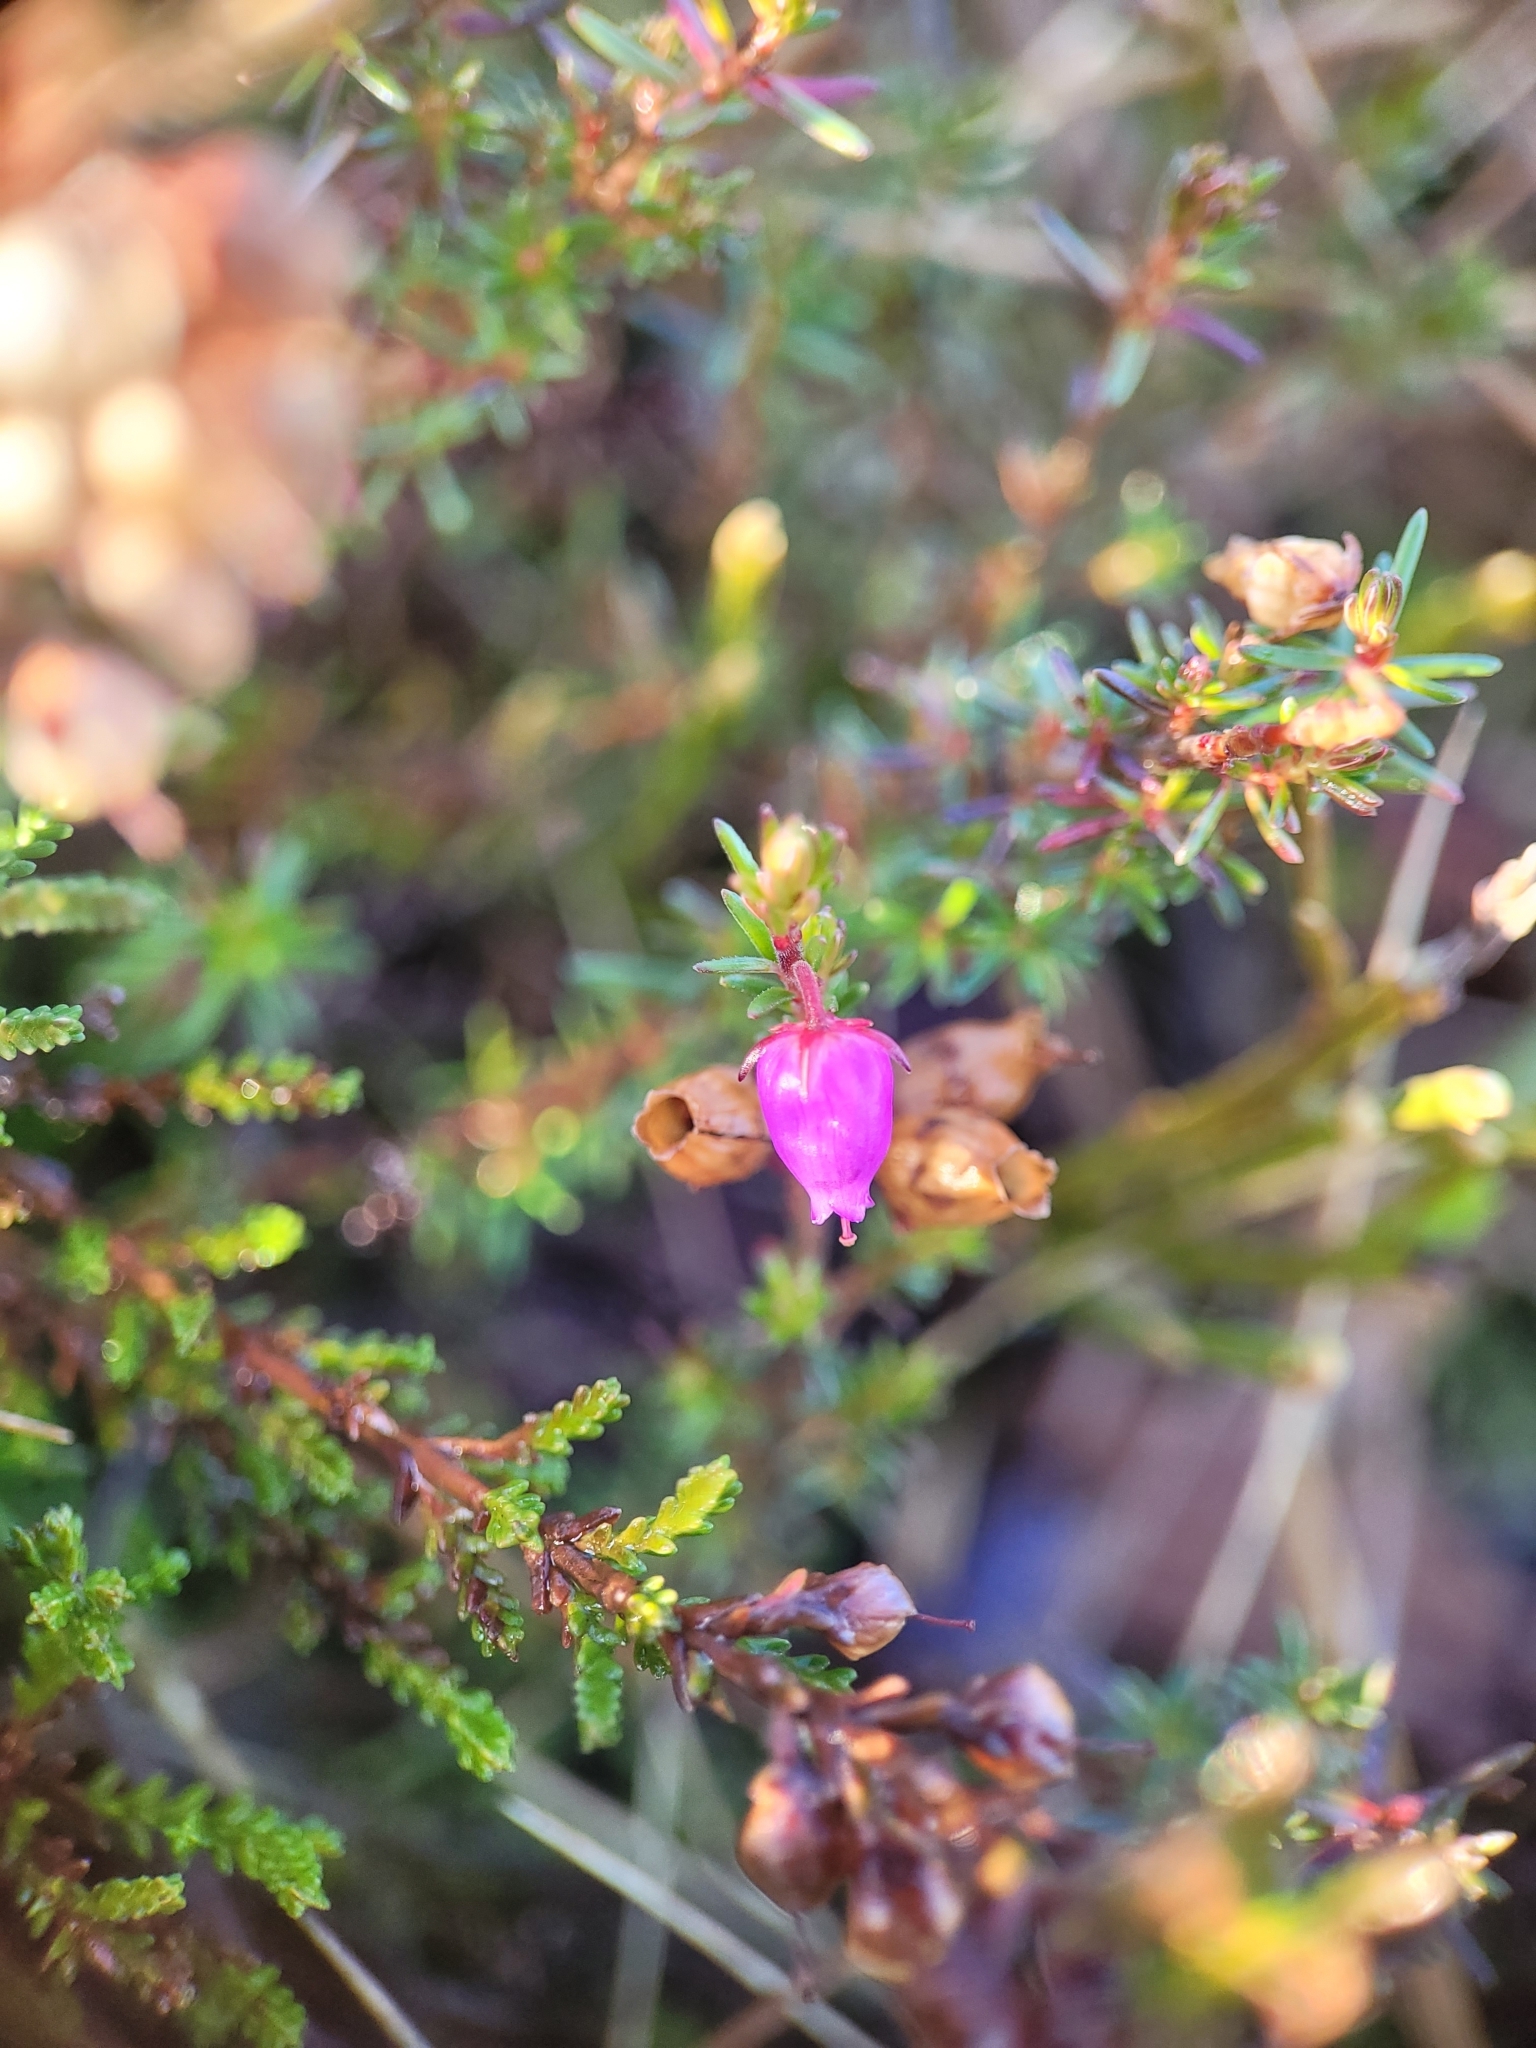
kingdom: Plantae
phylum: Tracheophyta
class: Magnoliopsida
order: Ericales
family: Ericaceae
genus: Erica
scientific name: Erica cinerea
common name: Bell heather
